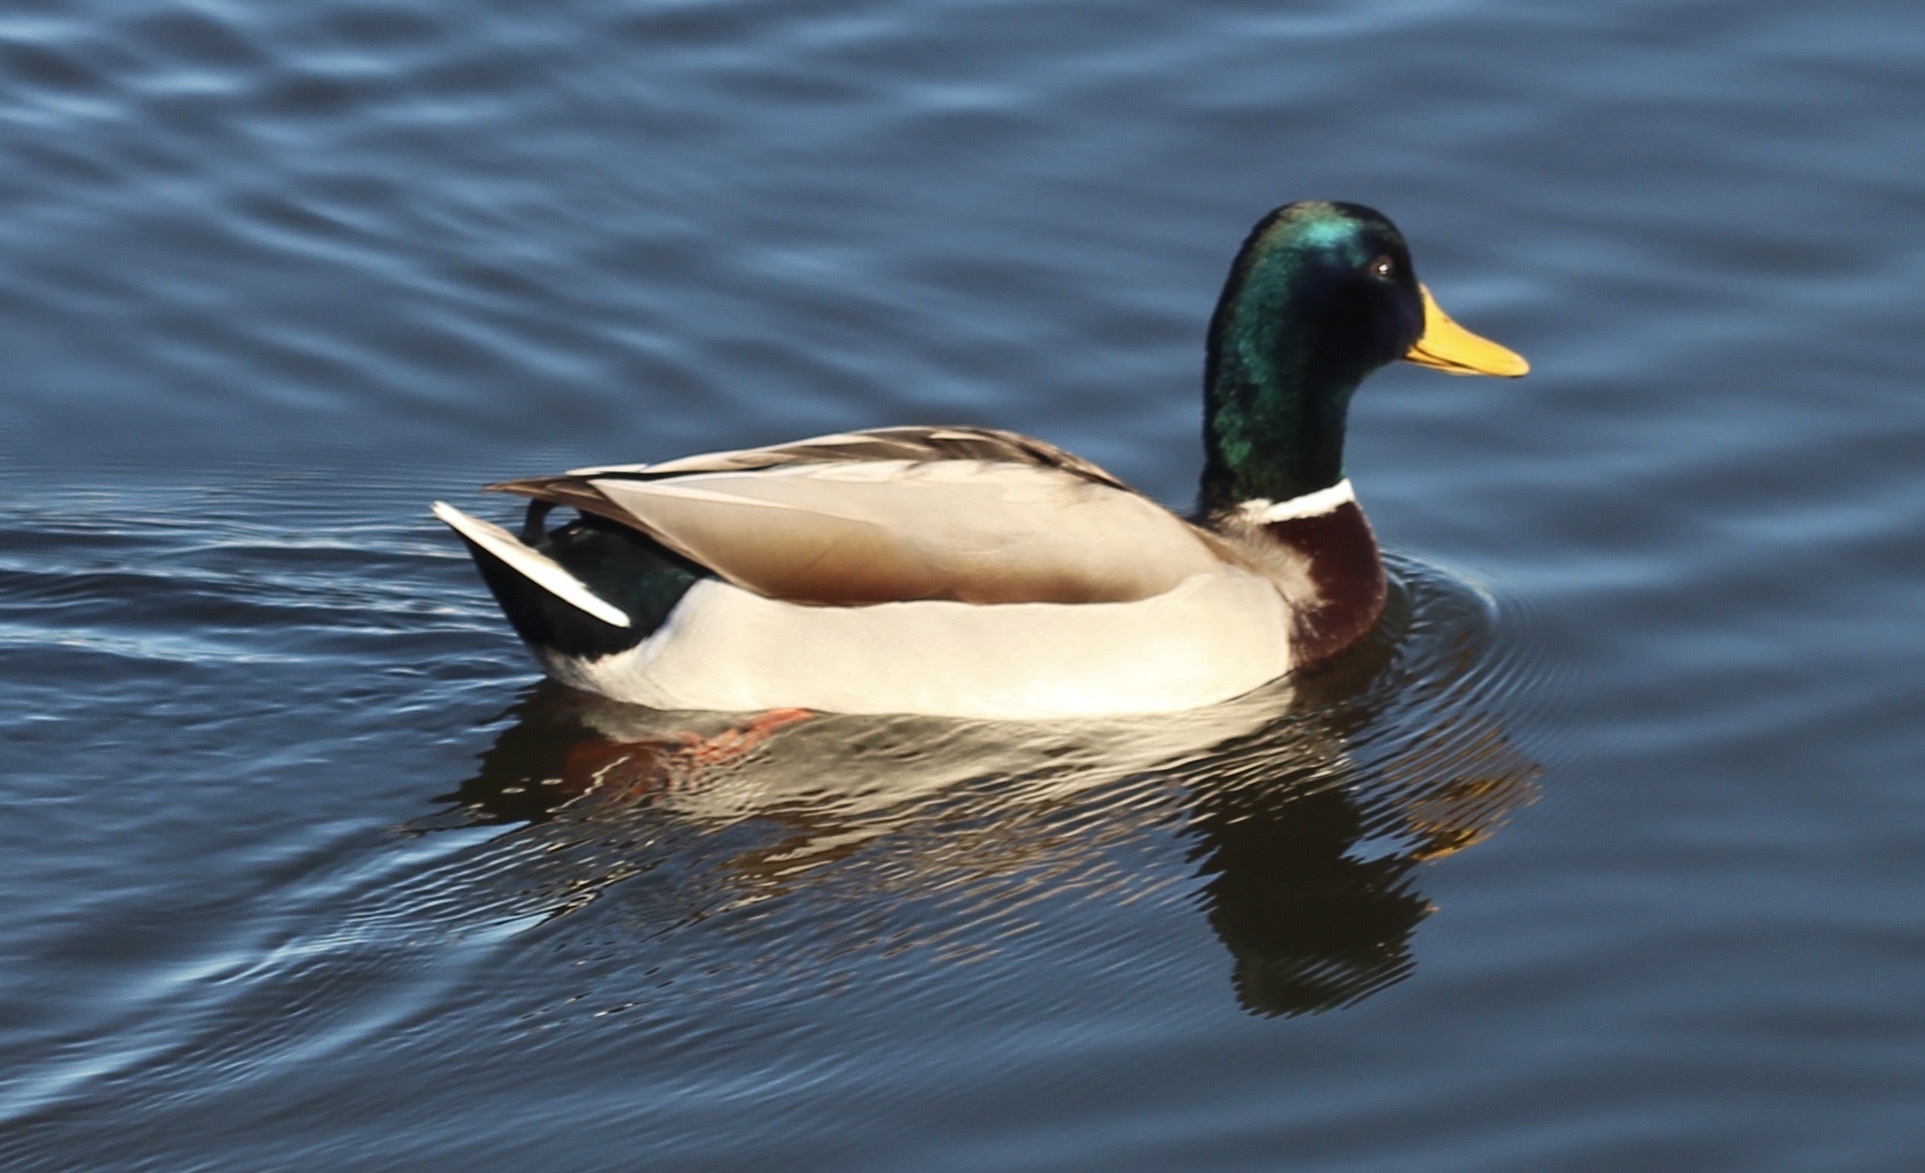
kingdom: Animalia
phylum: Chordata
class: Aves
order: Anseriformes
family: Anatidae
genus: Anas
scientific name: Anas platyrhynchos
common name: Mallard
